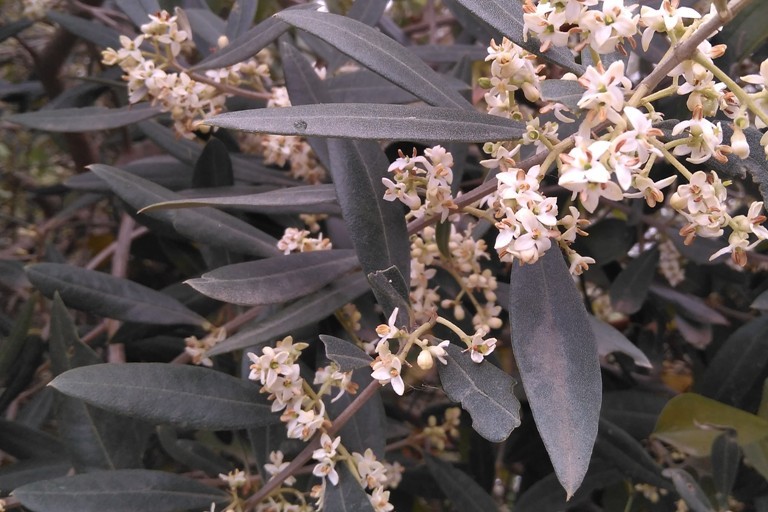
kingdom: Plantae
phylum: Tracheophyta
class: Magnoliopsida
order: Lamiales
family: Oleaceae
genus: Olea
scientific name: Olea europaea
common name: Olive
